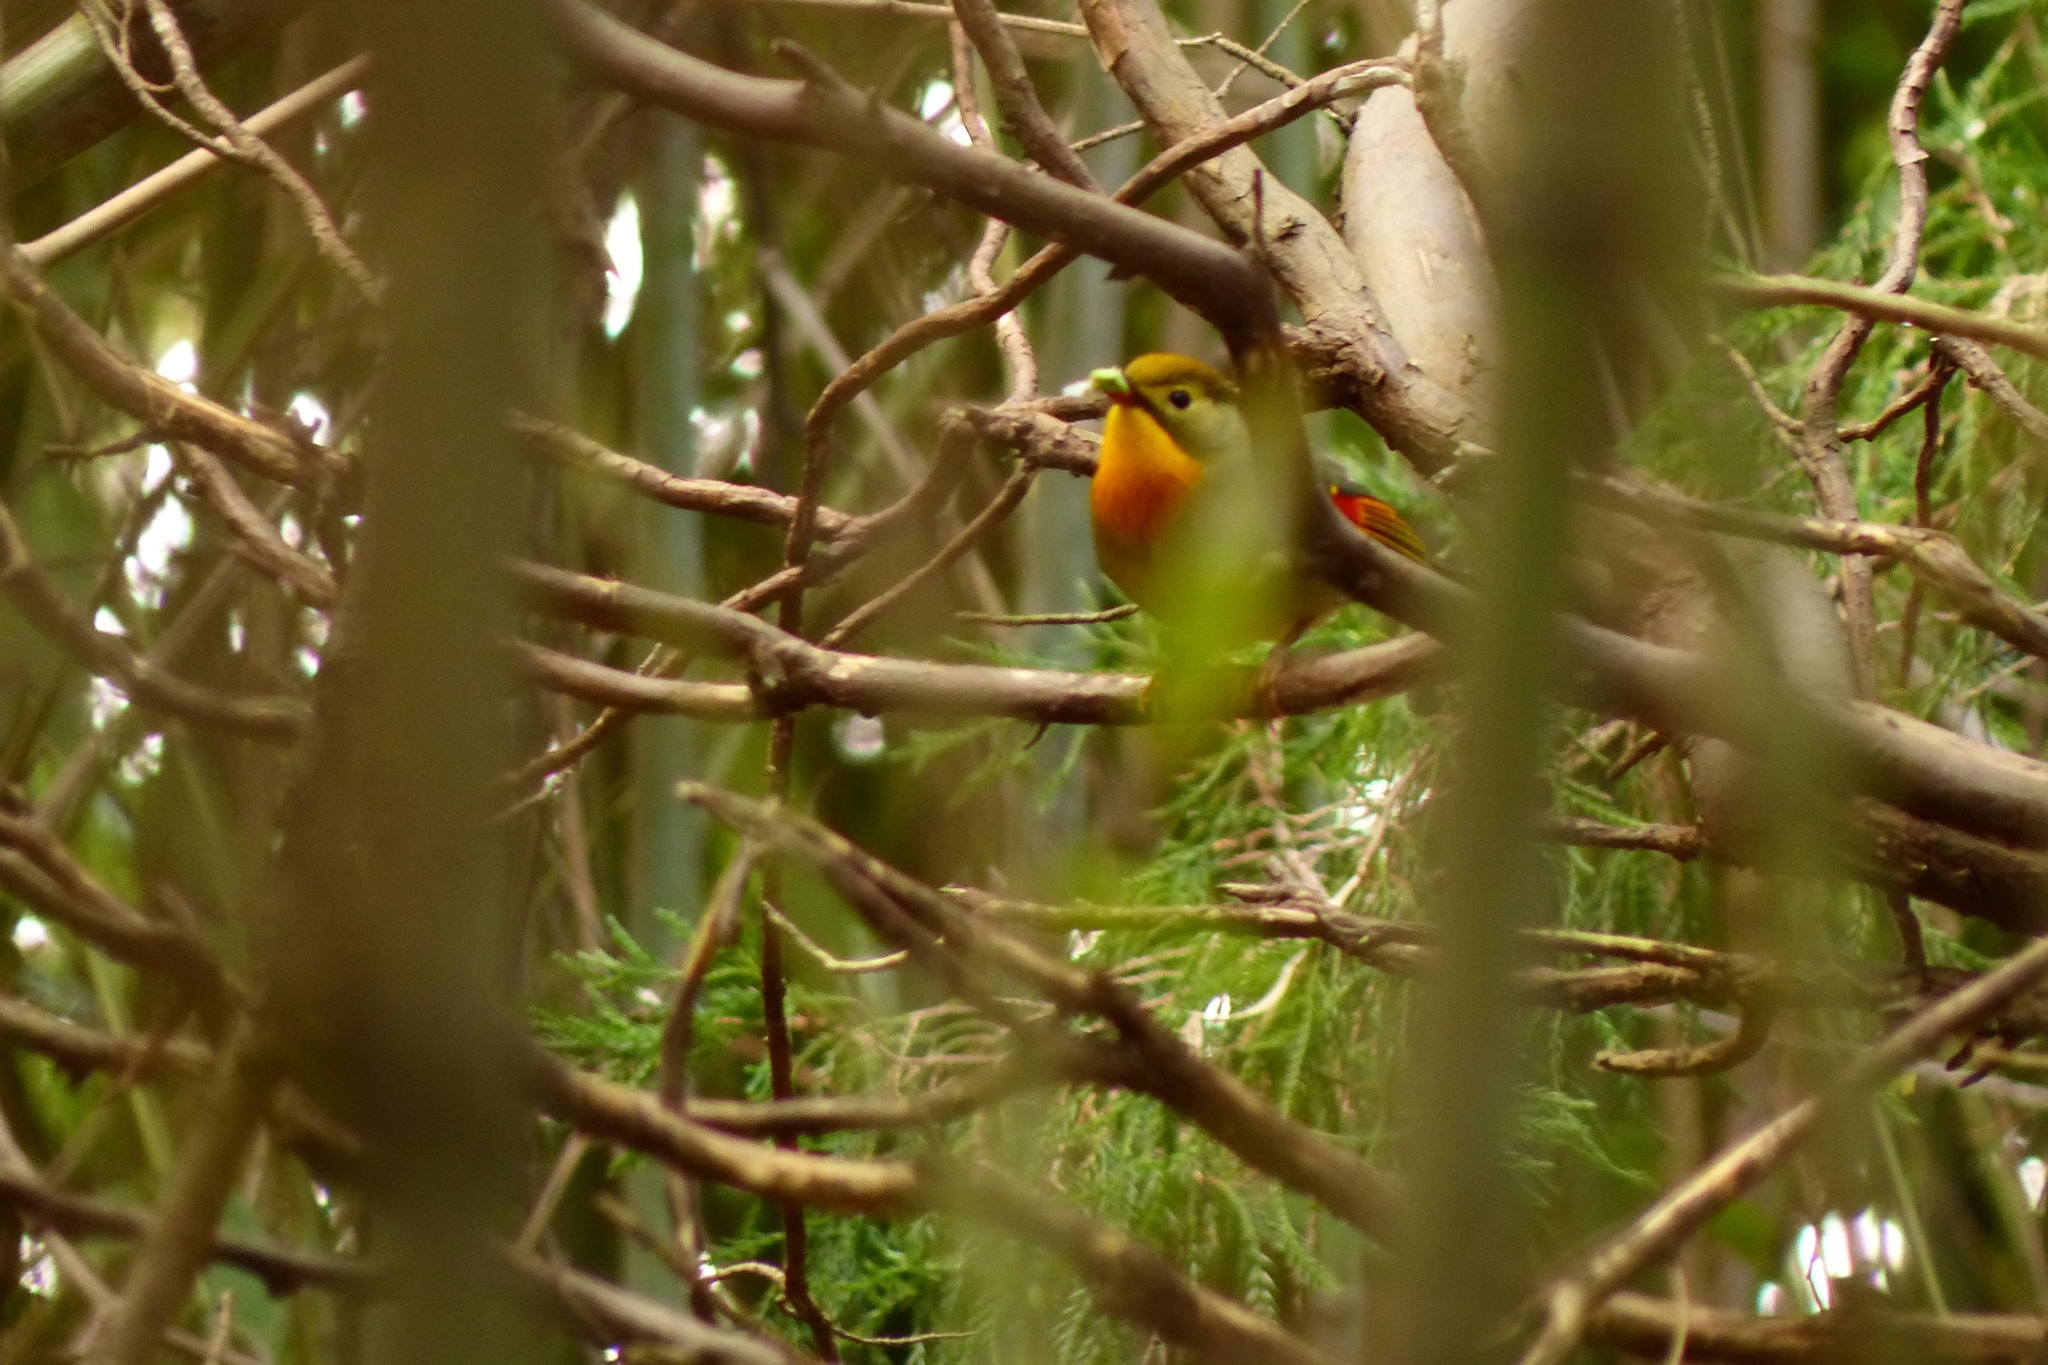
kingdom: Animalia
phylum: Chordata
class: Aves
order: Passeriformes
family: Leiothrichidae
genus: Leiothrix
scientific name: Leiothrix lutea
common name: Red-billed leiothrix
